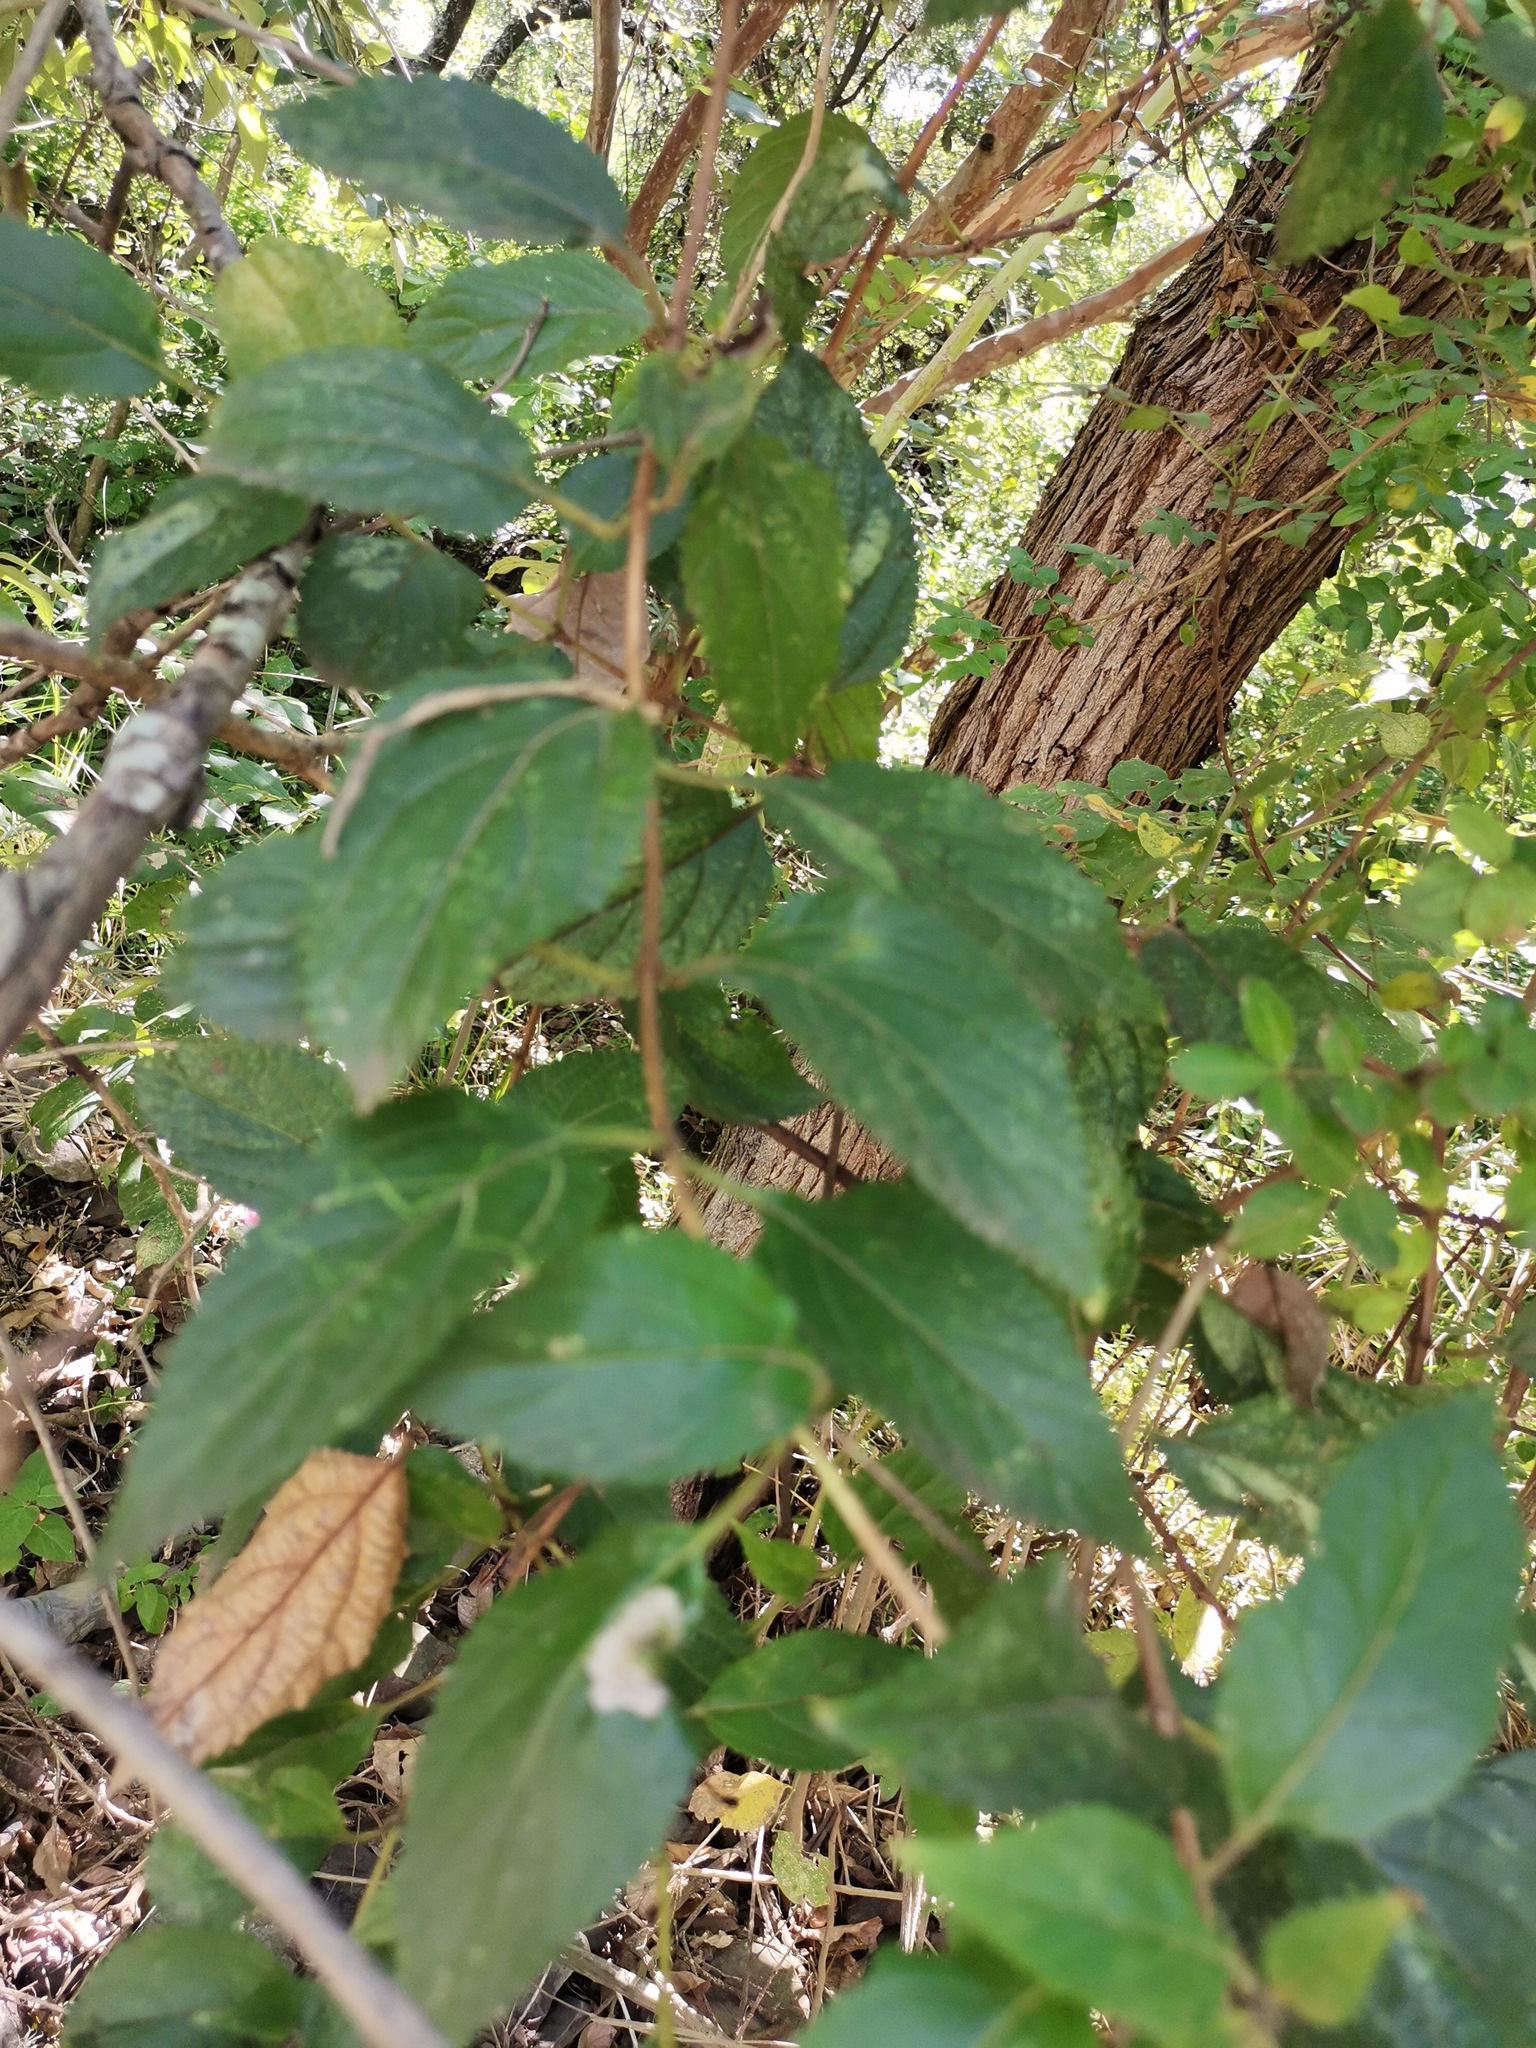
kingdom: Plantae
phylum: Tracheophyta
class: Magnoliopsida
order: Lamiales
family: Verbenaceae
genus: Lantana
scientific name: Lantana camara
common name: Lantana
